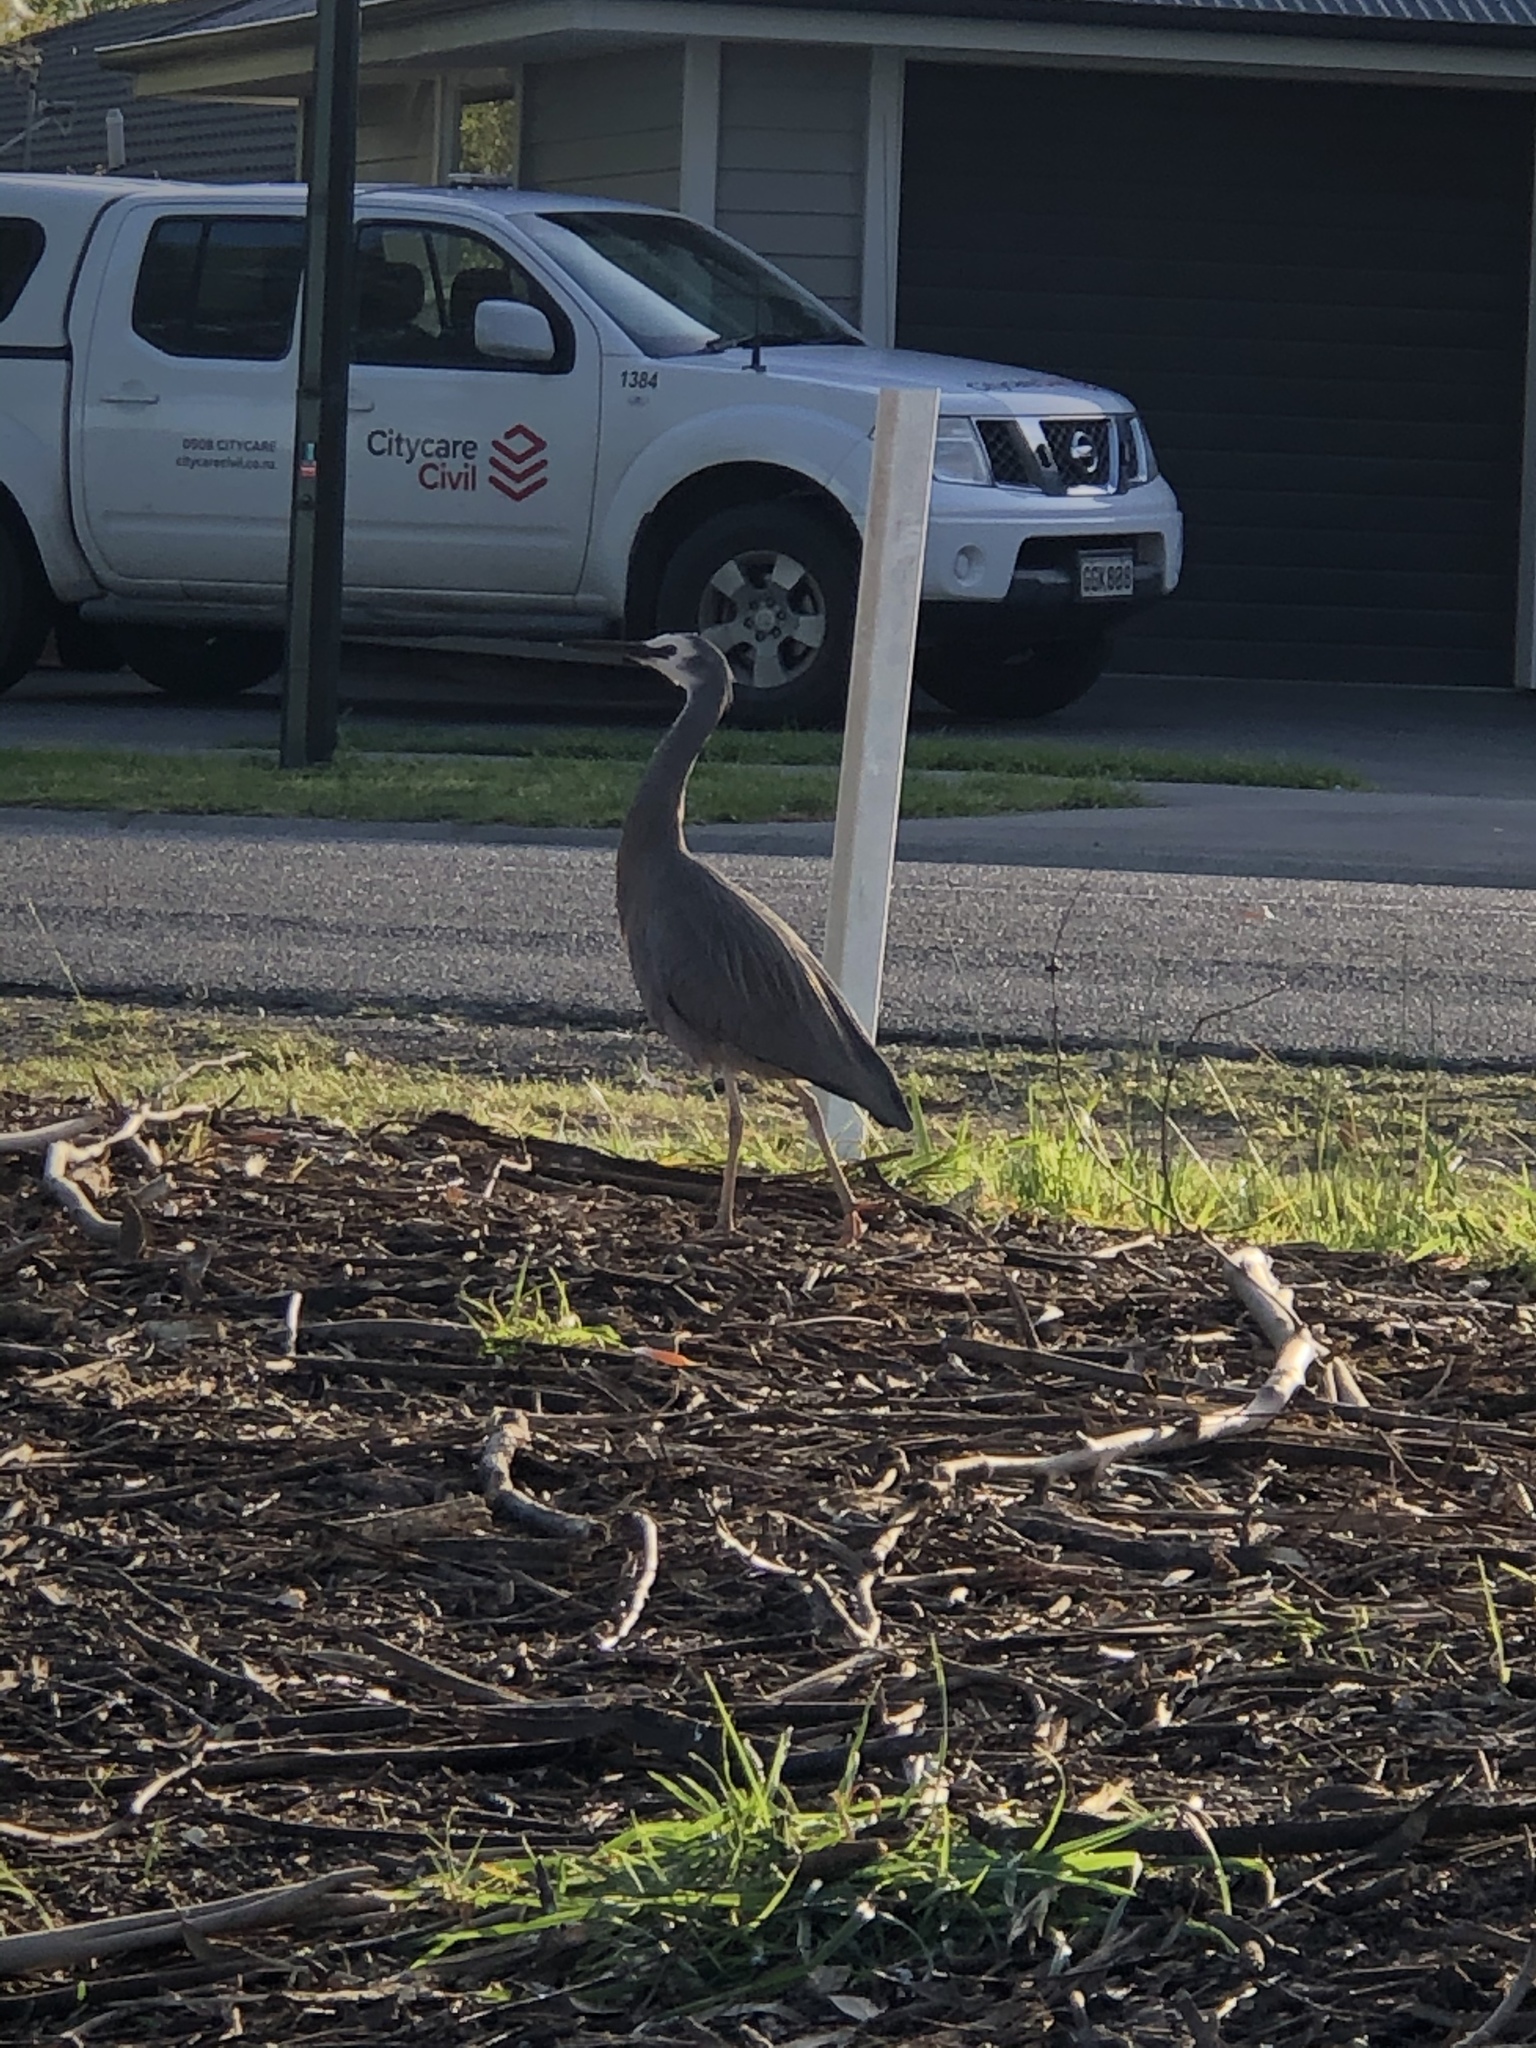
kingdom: Animalia
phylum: Chordata
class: Aves
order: Pelecaniformes
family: Ardeidae
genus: Egretta
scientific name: Egretta novaehollandiae
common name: White-faced heron
